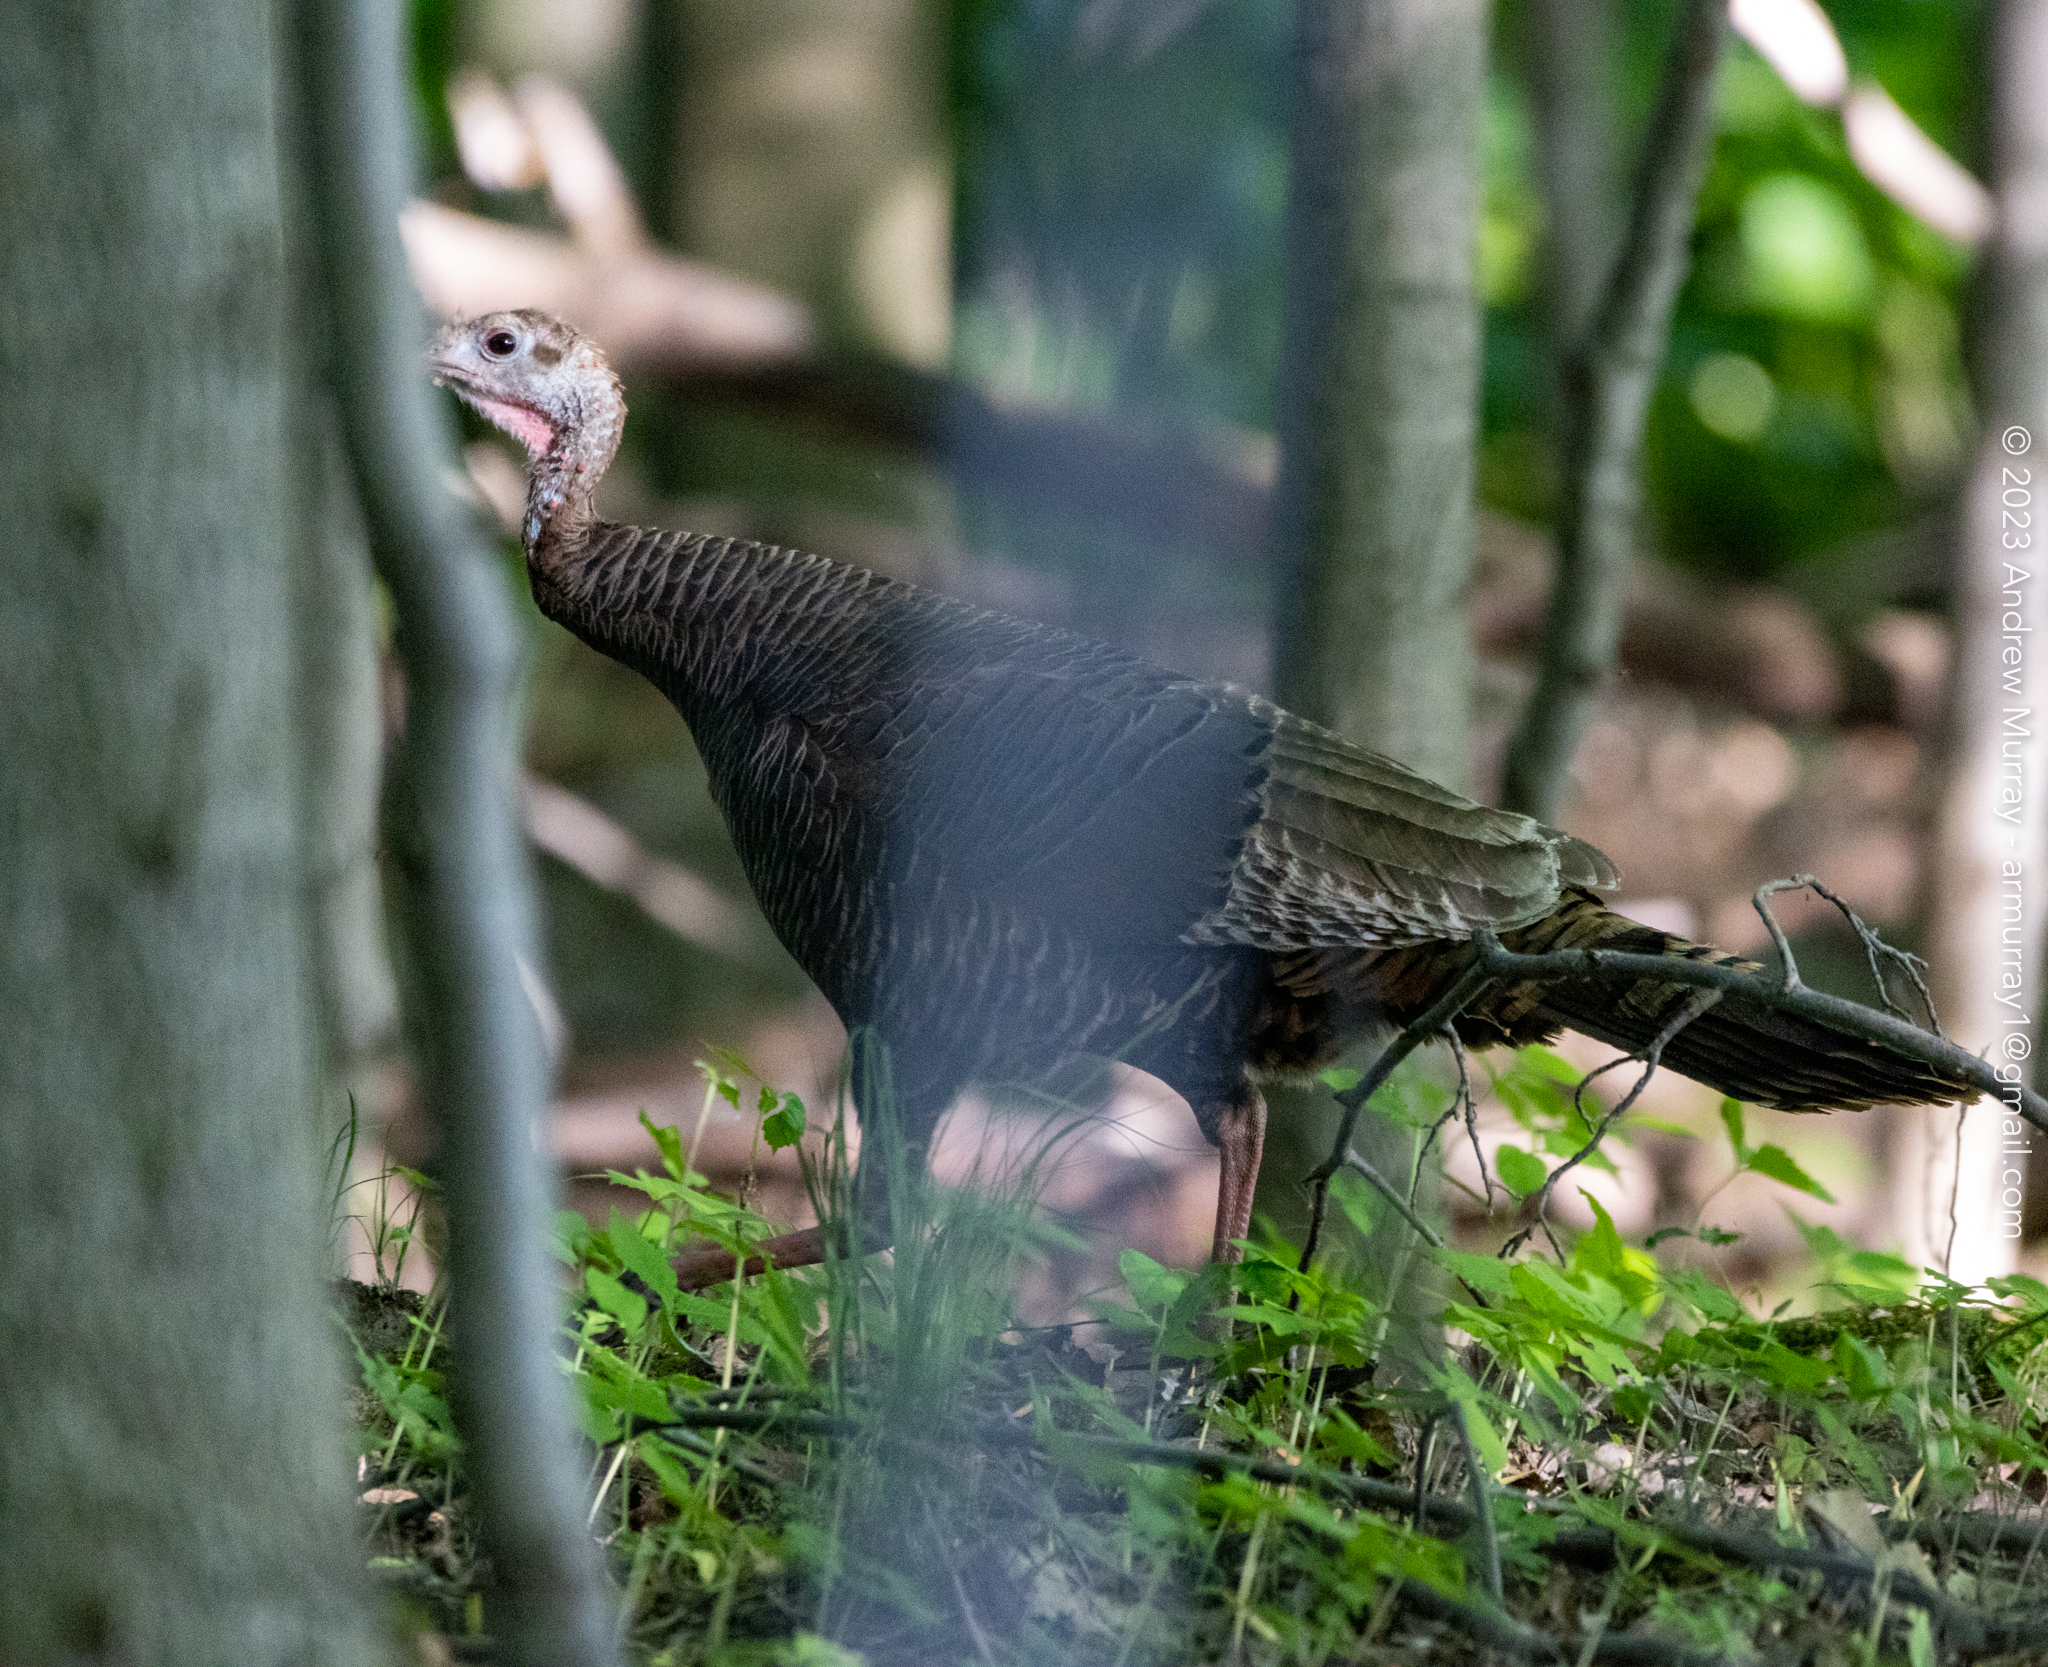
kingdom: Animalia
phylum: Chordata
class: Aves
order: Galliformes
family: Phasianidae
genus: Meleagris
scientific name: Meleagris gallopavo
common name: Wild turkey
